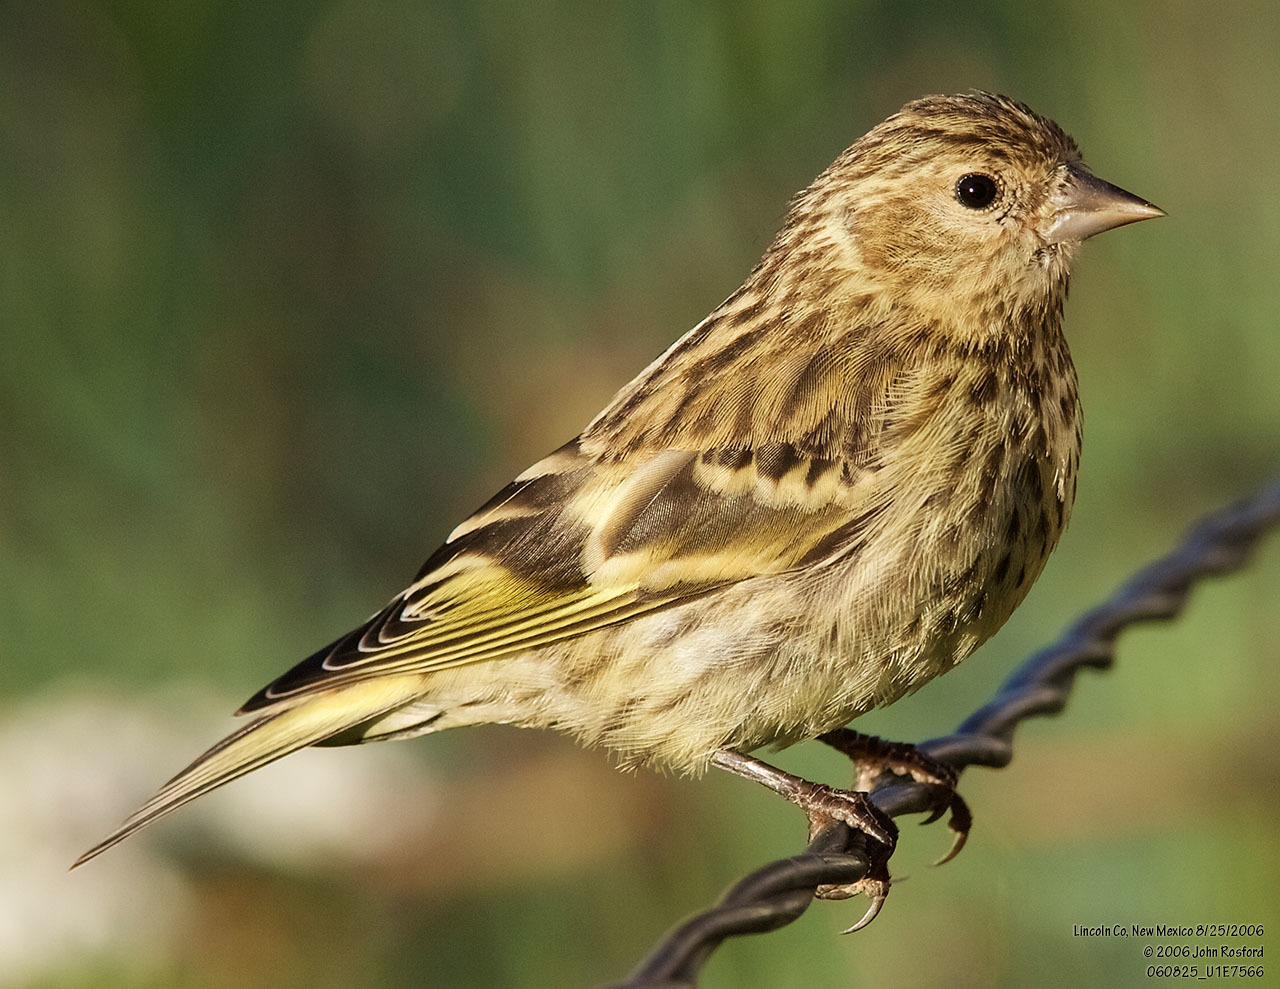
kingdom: Animalia
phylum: Chordata
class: Aves
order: Passeriformes
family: Fringillidae
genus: Spinus
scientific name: Spinus pinus
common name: Pine siskin
